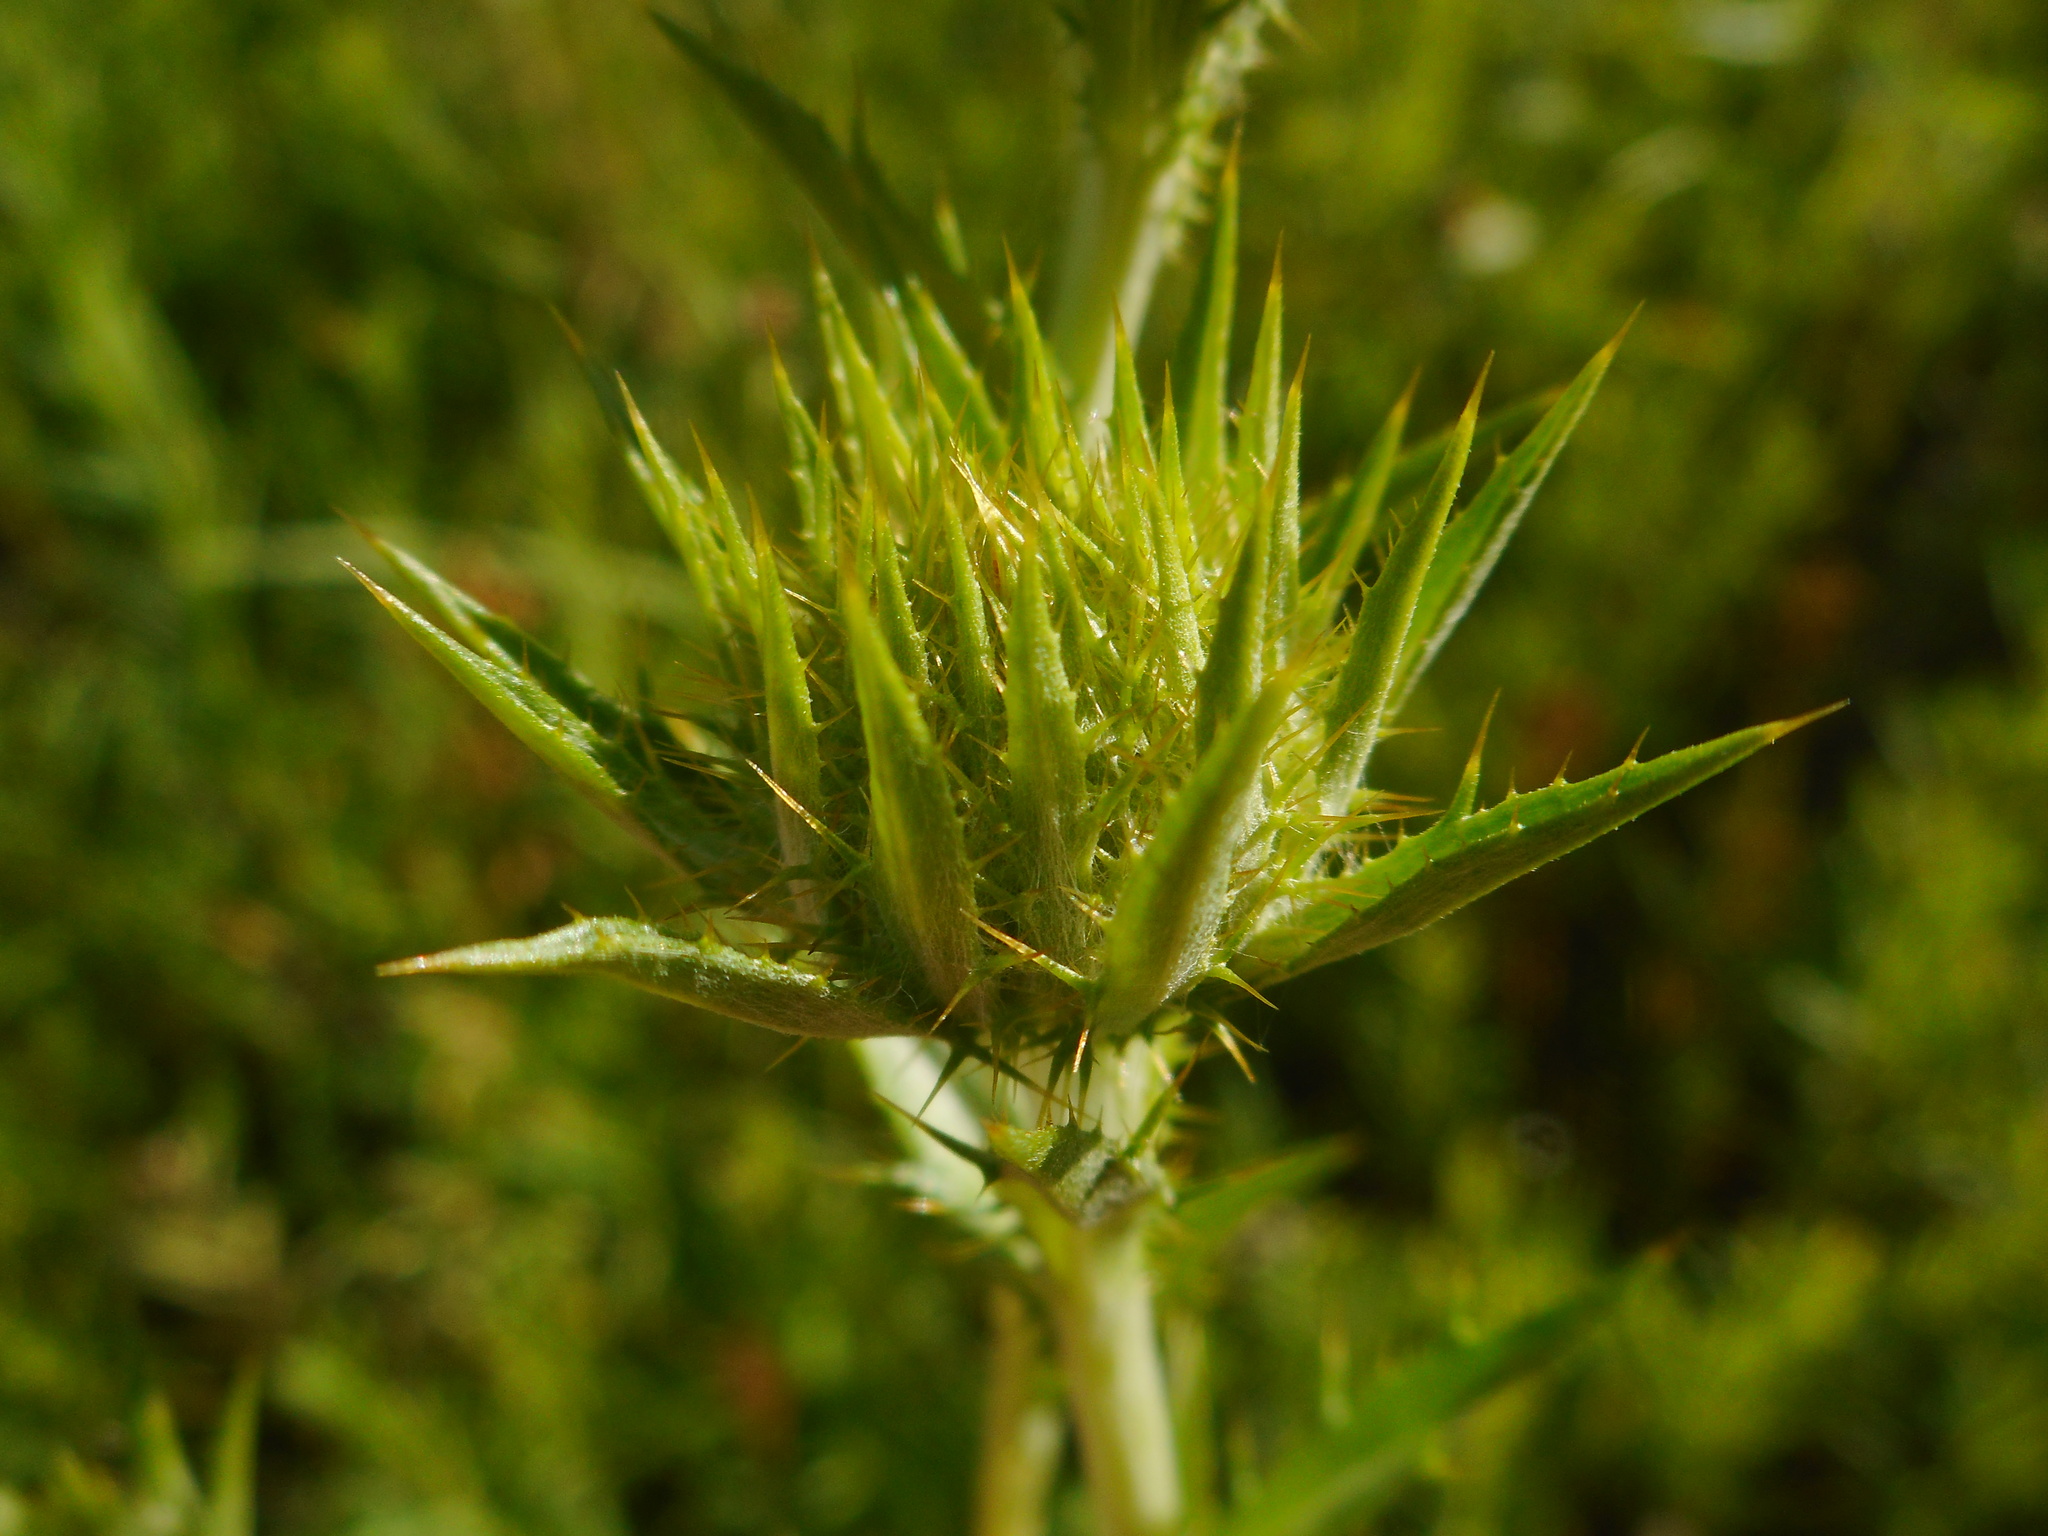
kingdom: Plantae
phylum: Tracheophyta
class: Magnoliopsida
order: Asterales
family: Asteraceae
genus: Carlina
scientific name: Carlina biebersteinii
